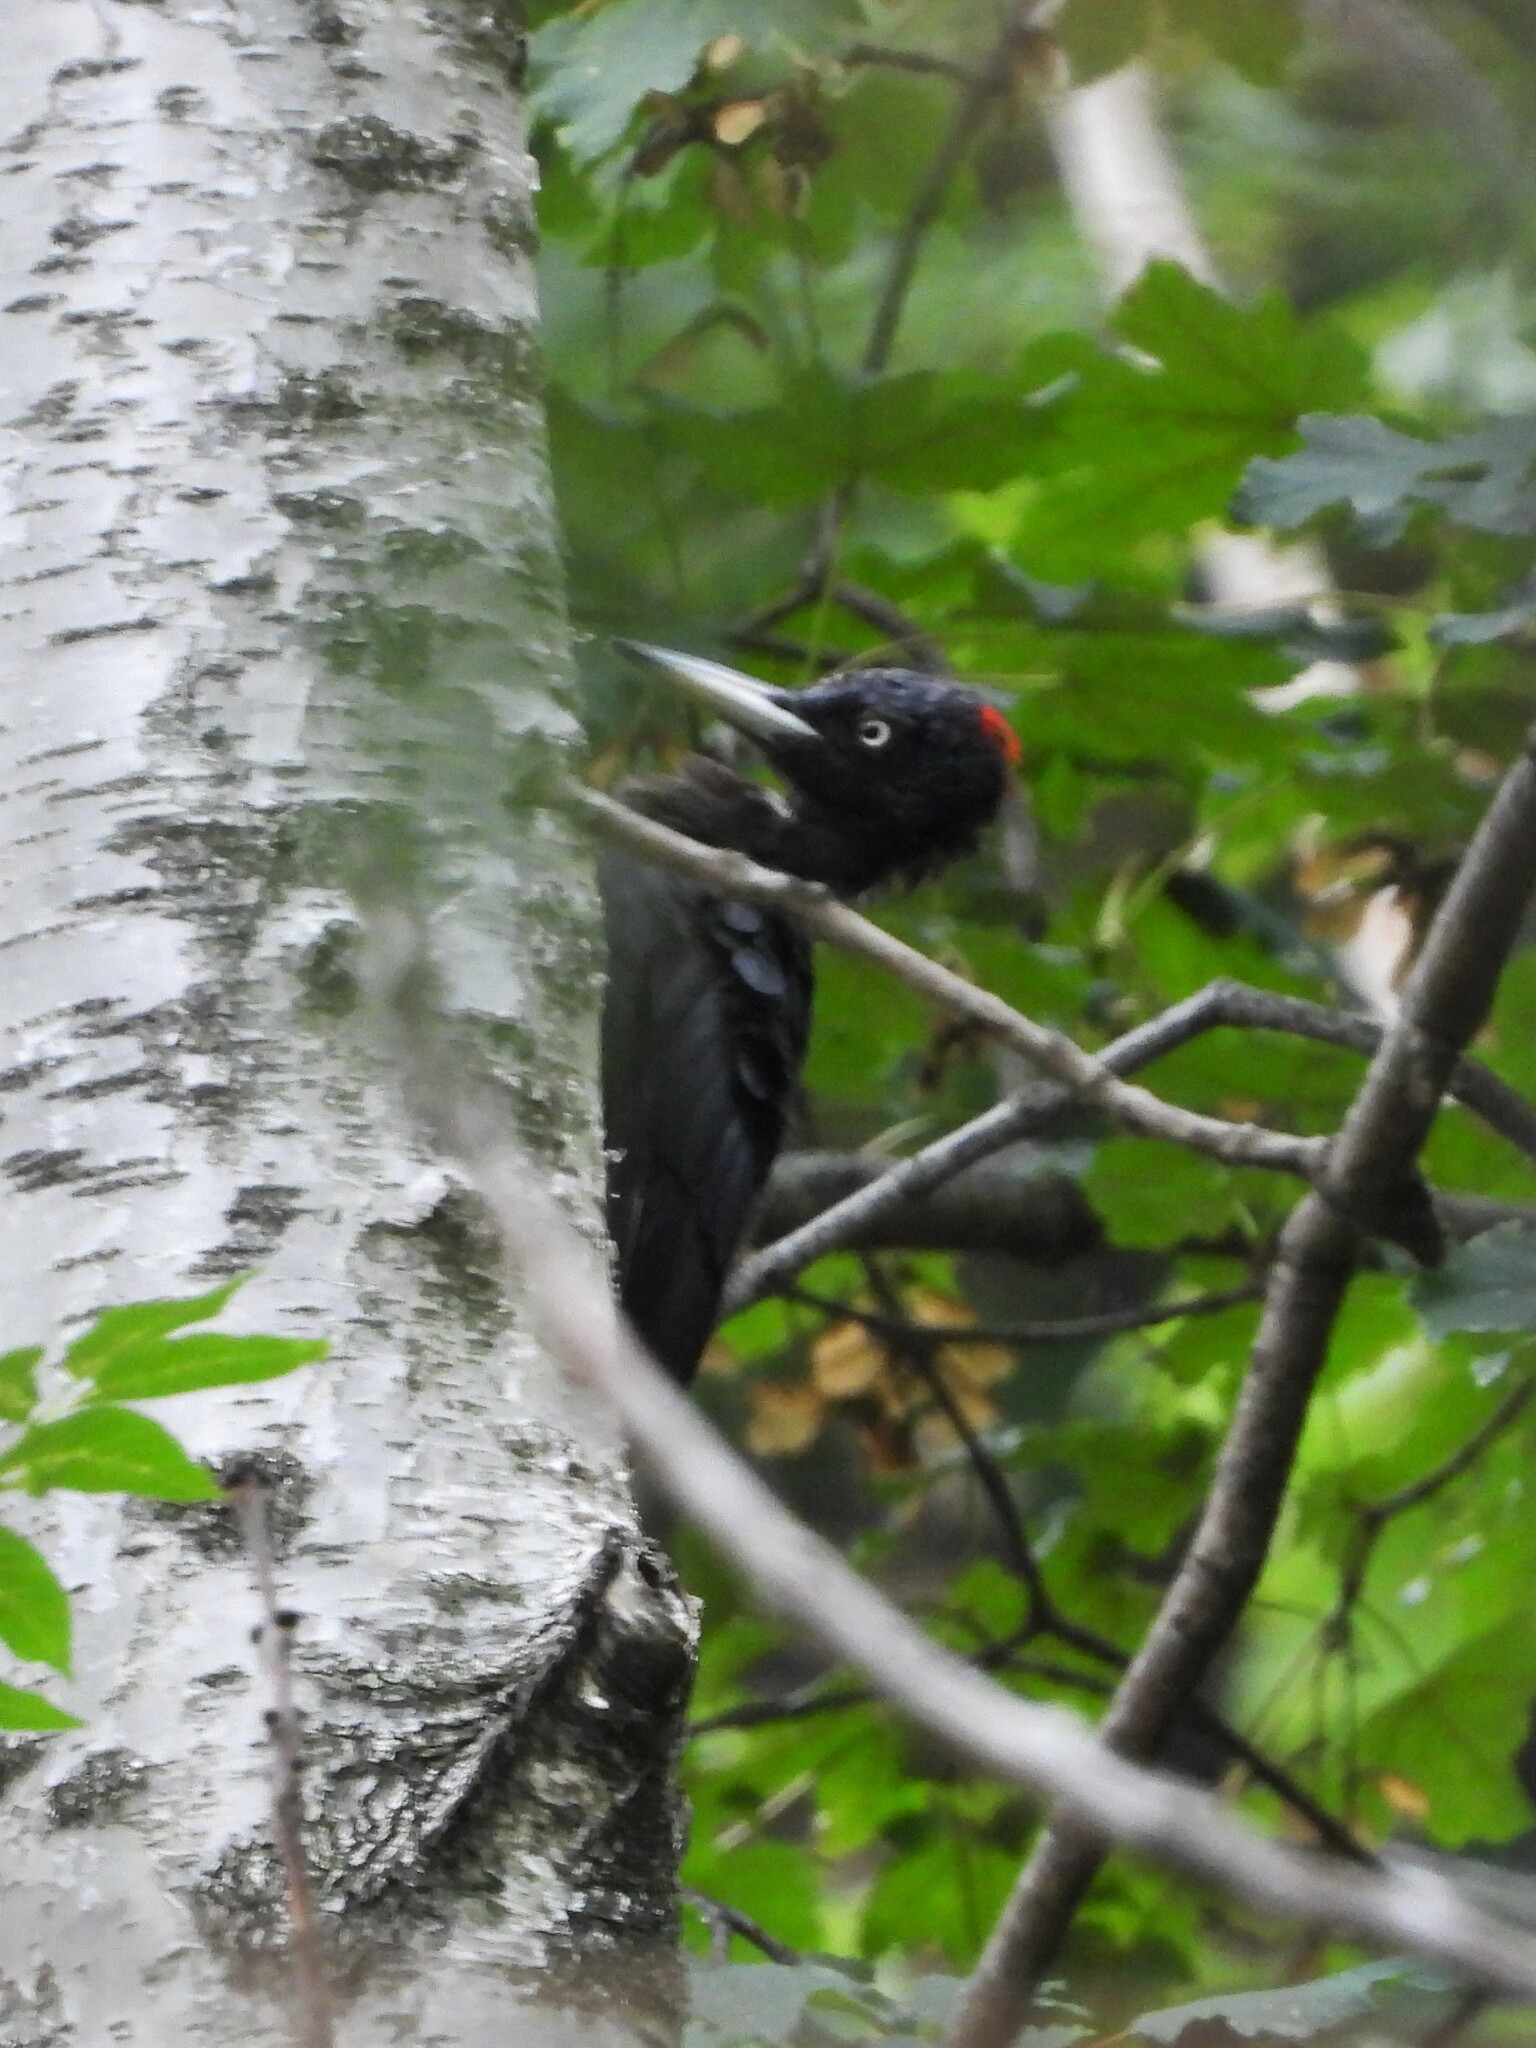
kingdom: Animalia
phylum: Chordata
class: Aves
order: Piciformes
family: Picidae
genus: Dryocopus
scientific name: Dryocopus martius
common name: Black woodpecker
